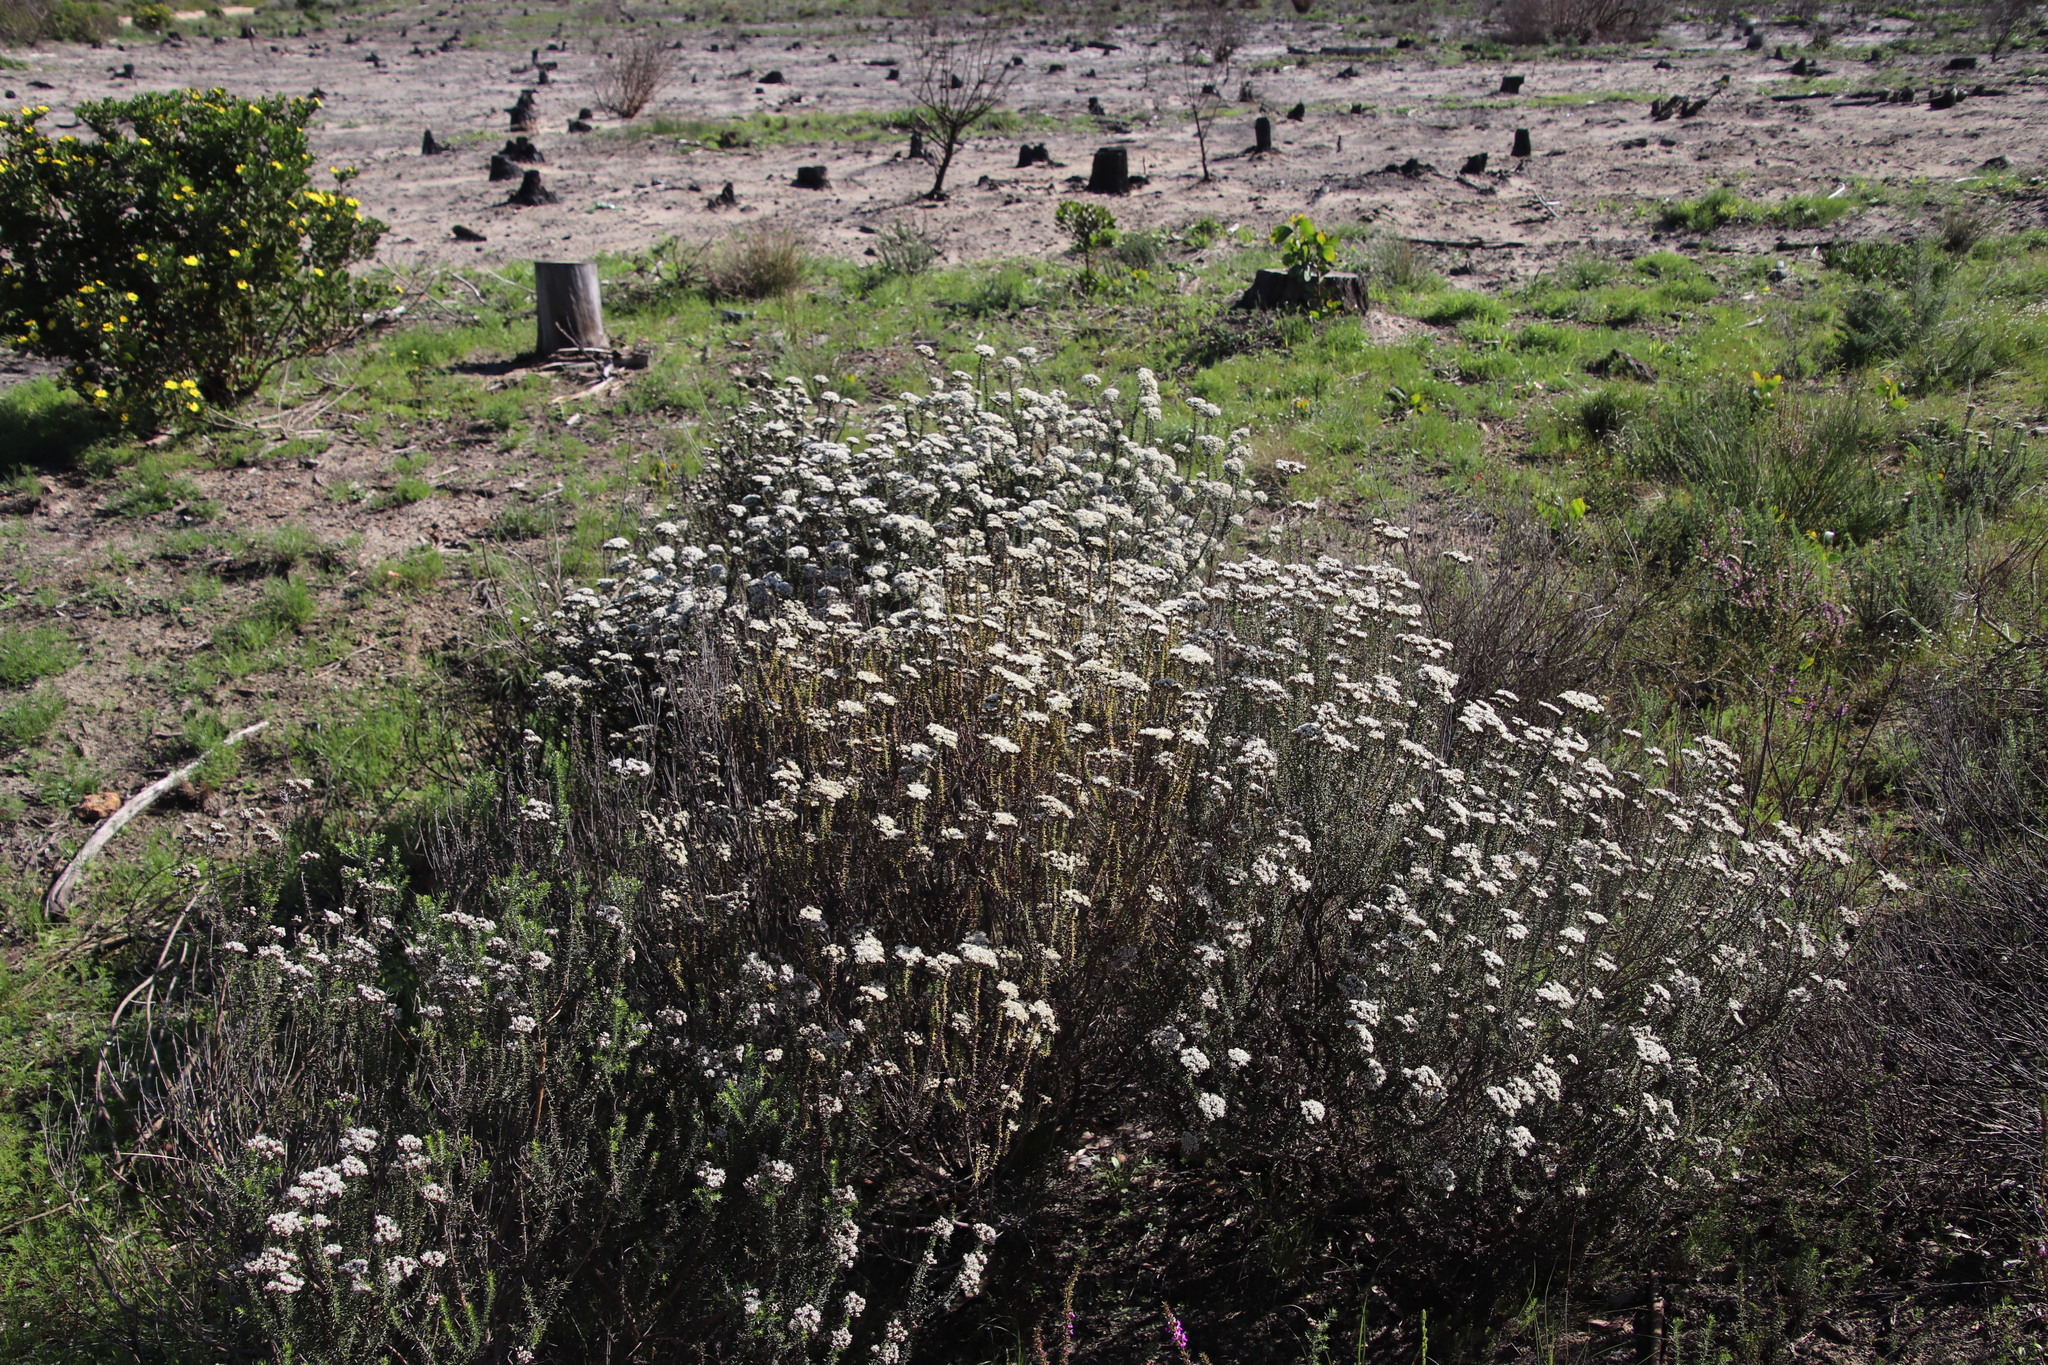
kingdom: Plantae
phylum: Tracheophyta
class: Magnoliopsida
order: Asterales
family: Asteraceae
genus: Metalasia
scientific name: Metalasia densa
